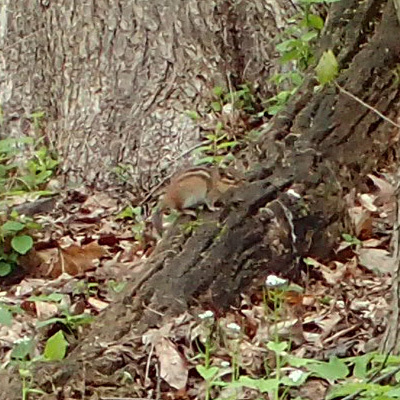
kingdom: Animalia
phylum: Chordata
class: Mammalia
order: Rodentia
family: Sciuridae
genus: Tamias
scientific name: Tamias striatus
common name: Eastern chipmunk
